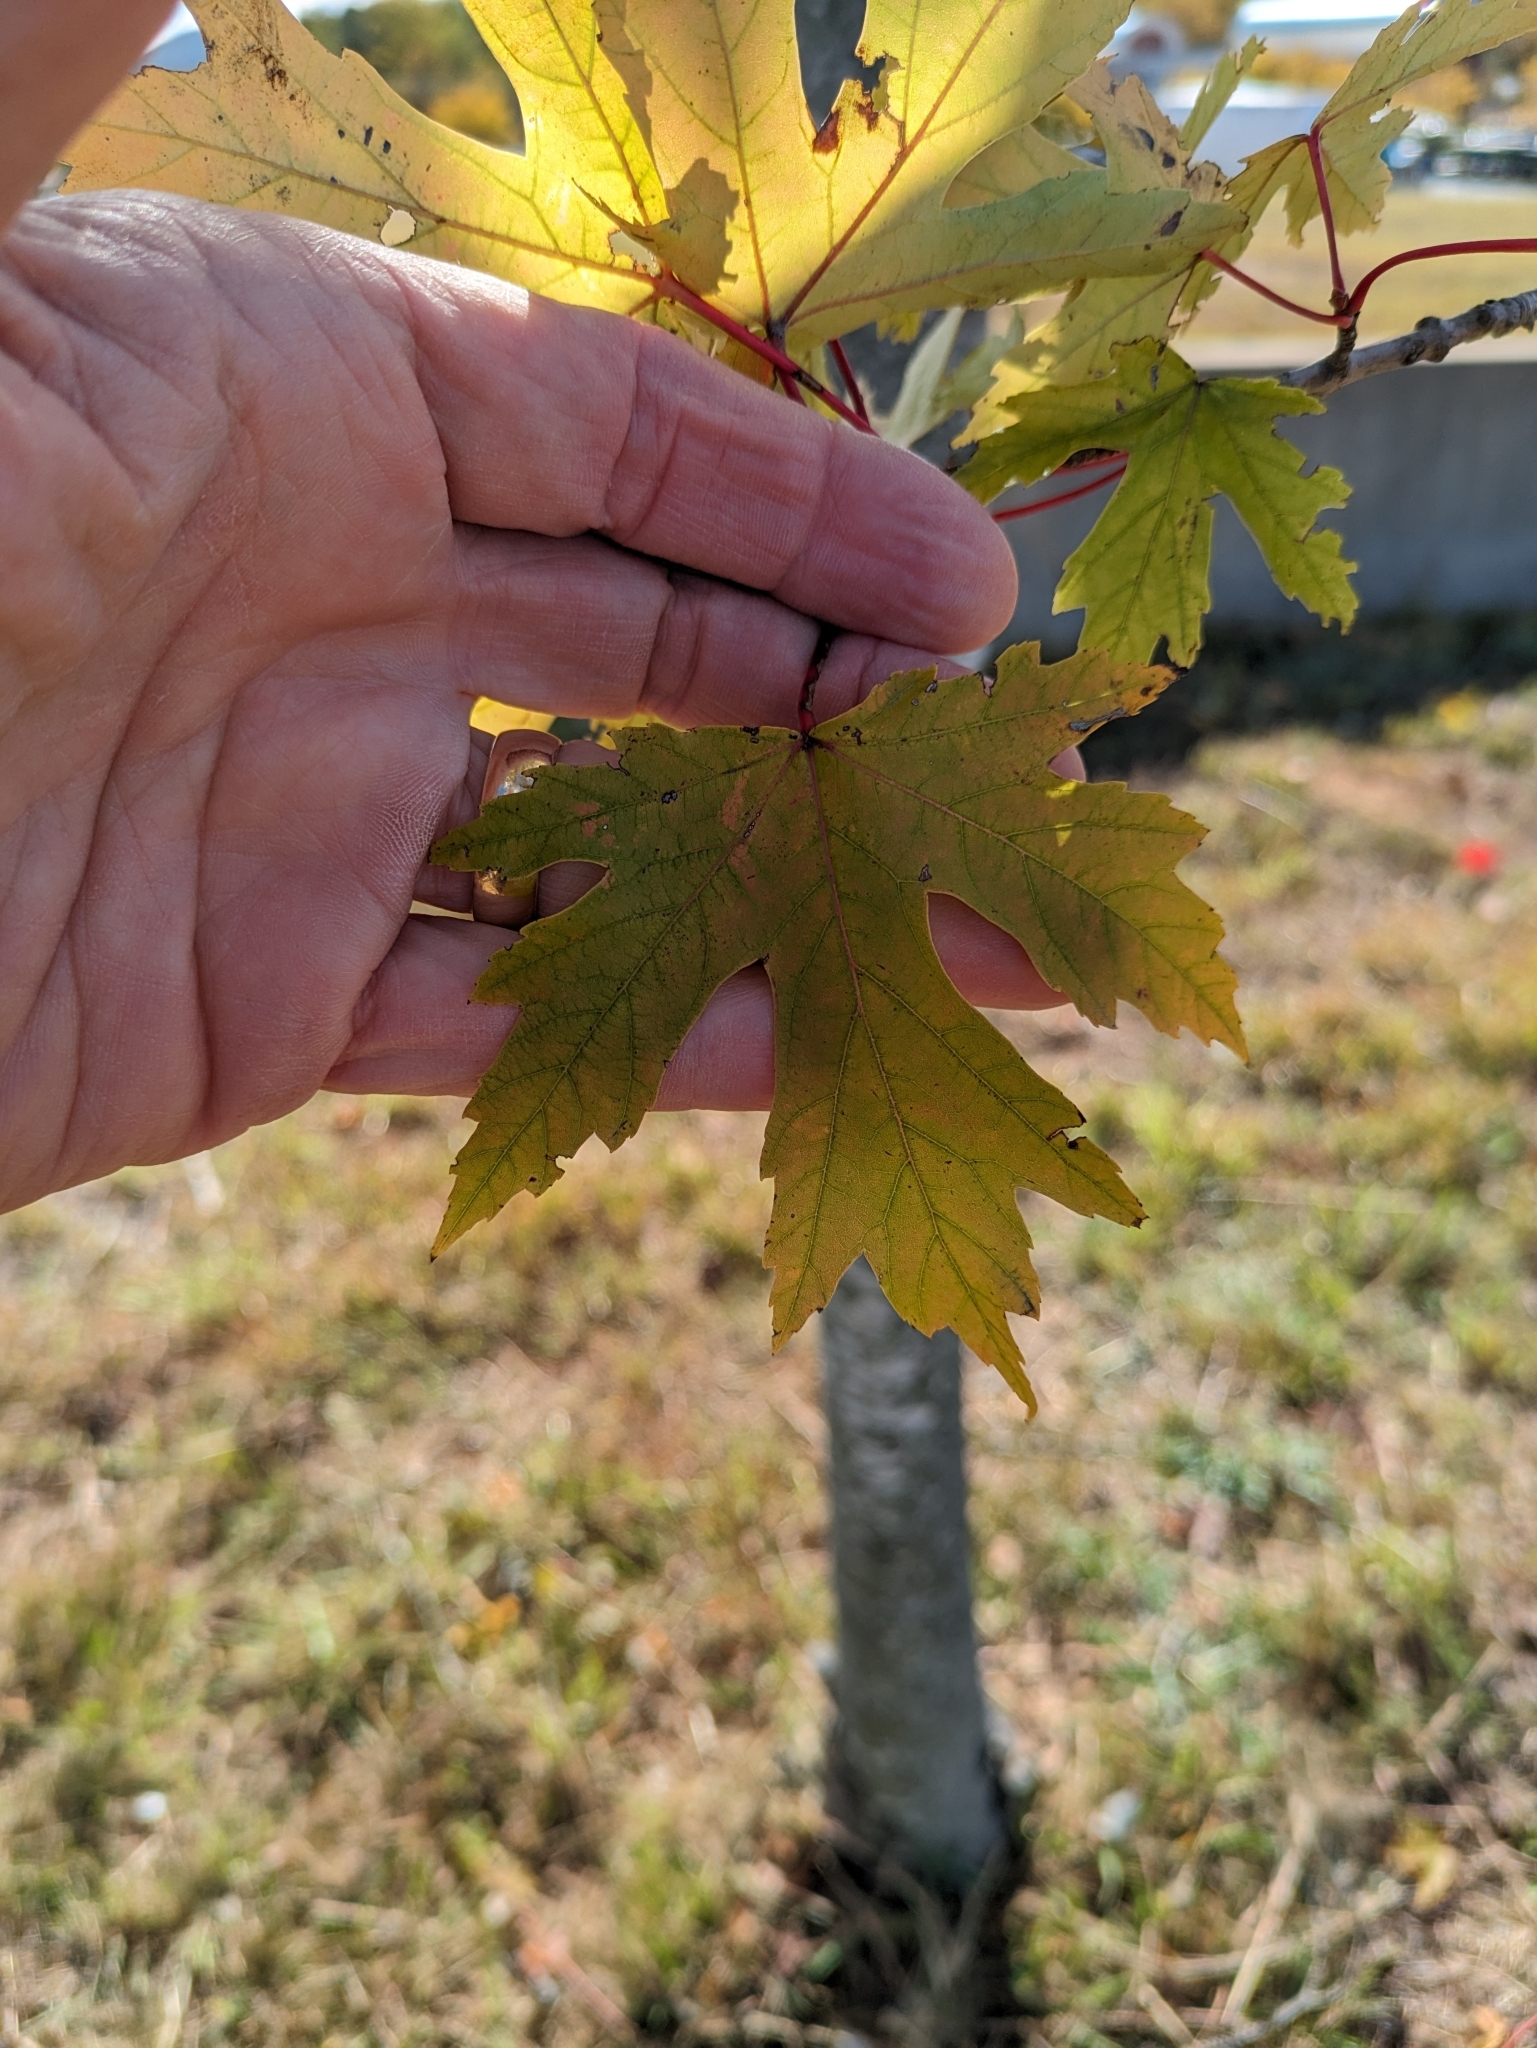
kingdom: Plantae
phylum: Tracheophyta
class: Magnoliopsida
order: Sapindales
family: Sapindaceae
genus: Acer
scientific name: Acer saccharinum
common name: Silver maple
